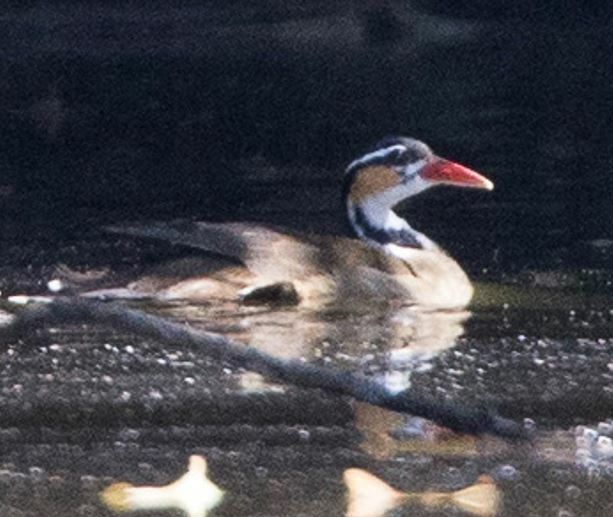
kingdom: Animalia
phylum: Chordata
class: Aves
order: Gruiformes
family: Heliornithidae
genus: Heliornis
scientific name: Heliornis fulica
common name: Sungrebe
